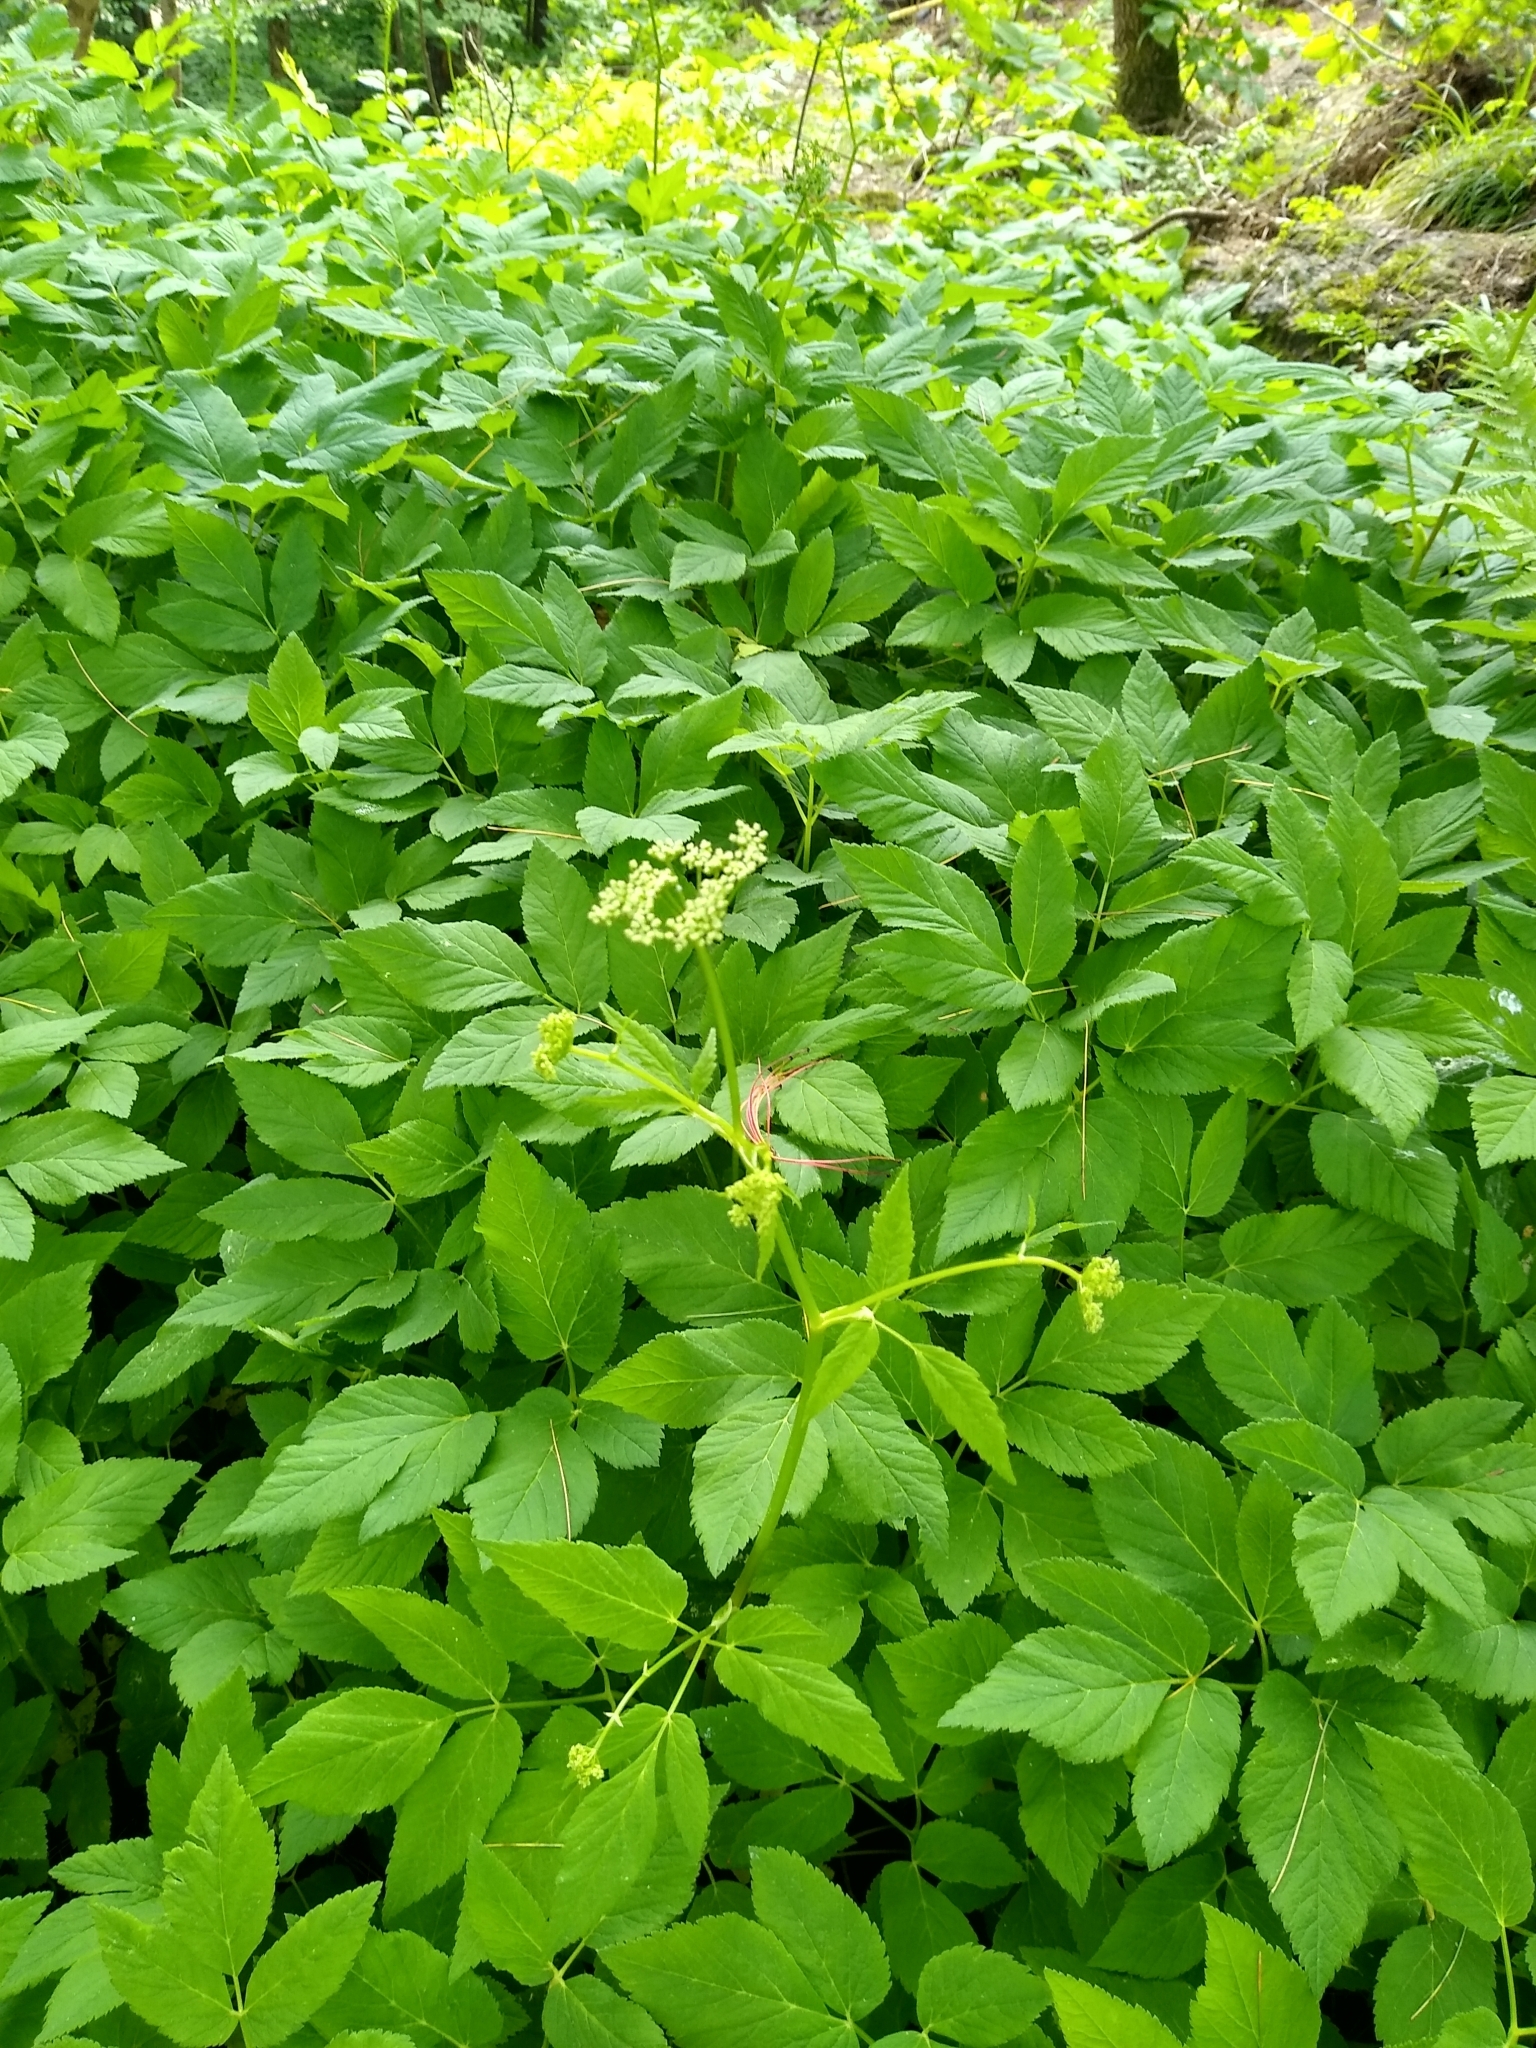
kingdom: Plantae
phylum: Tracheophyta
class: Magnoliopsida
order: Apiales
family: Apiaceae
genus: Aegopodium
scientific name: Aegopodium podagraria
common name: Ground-elder
